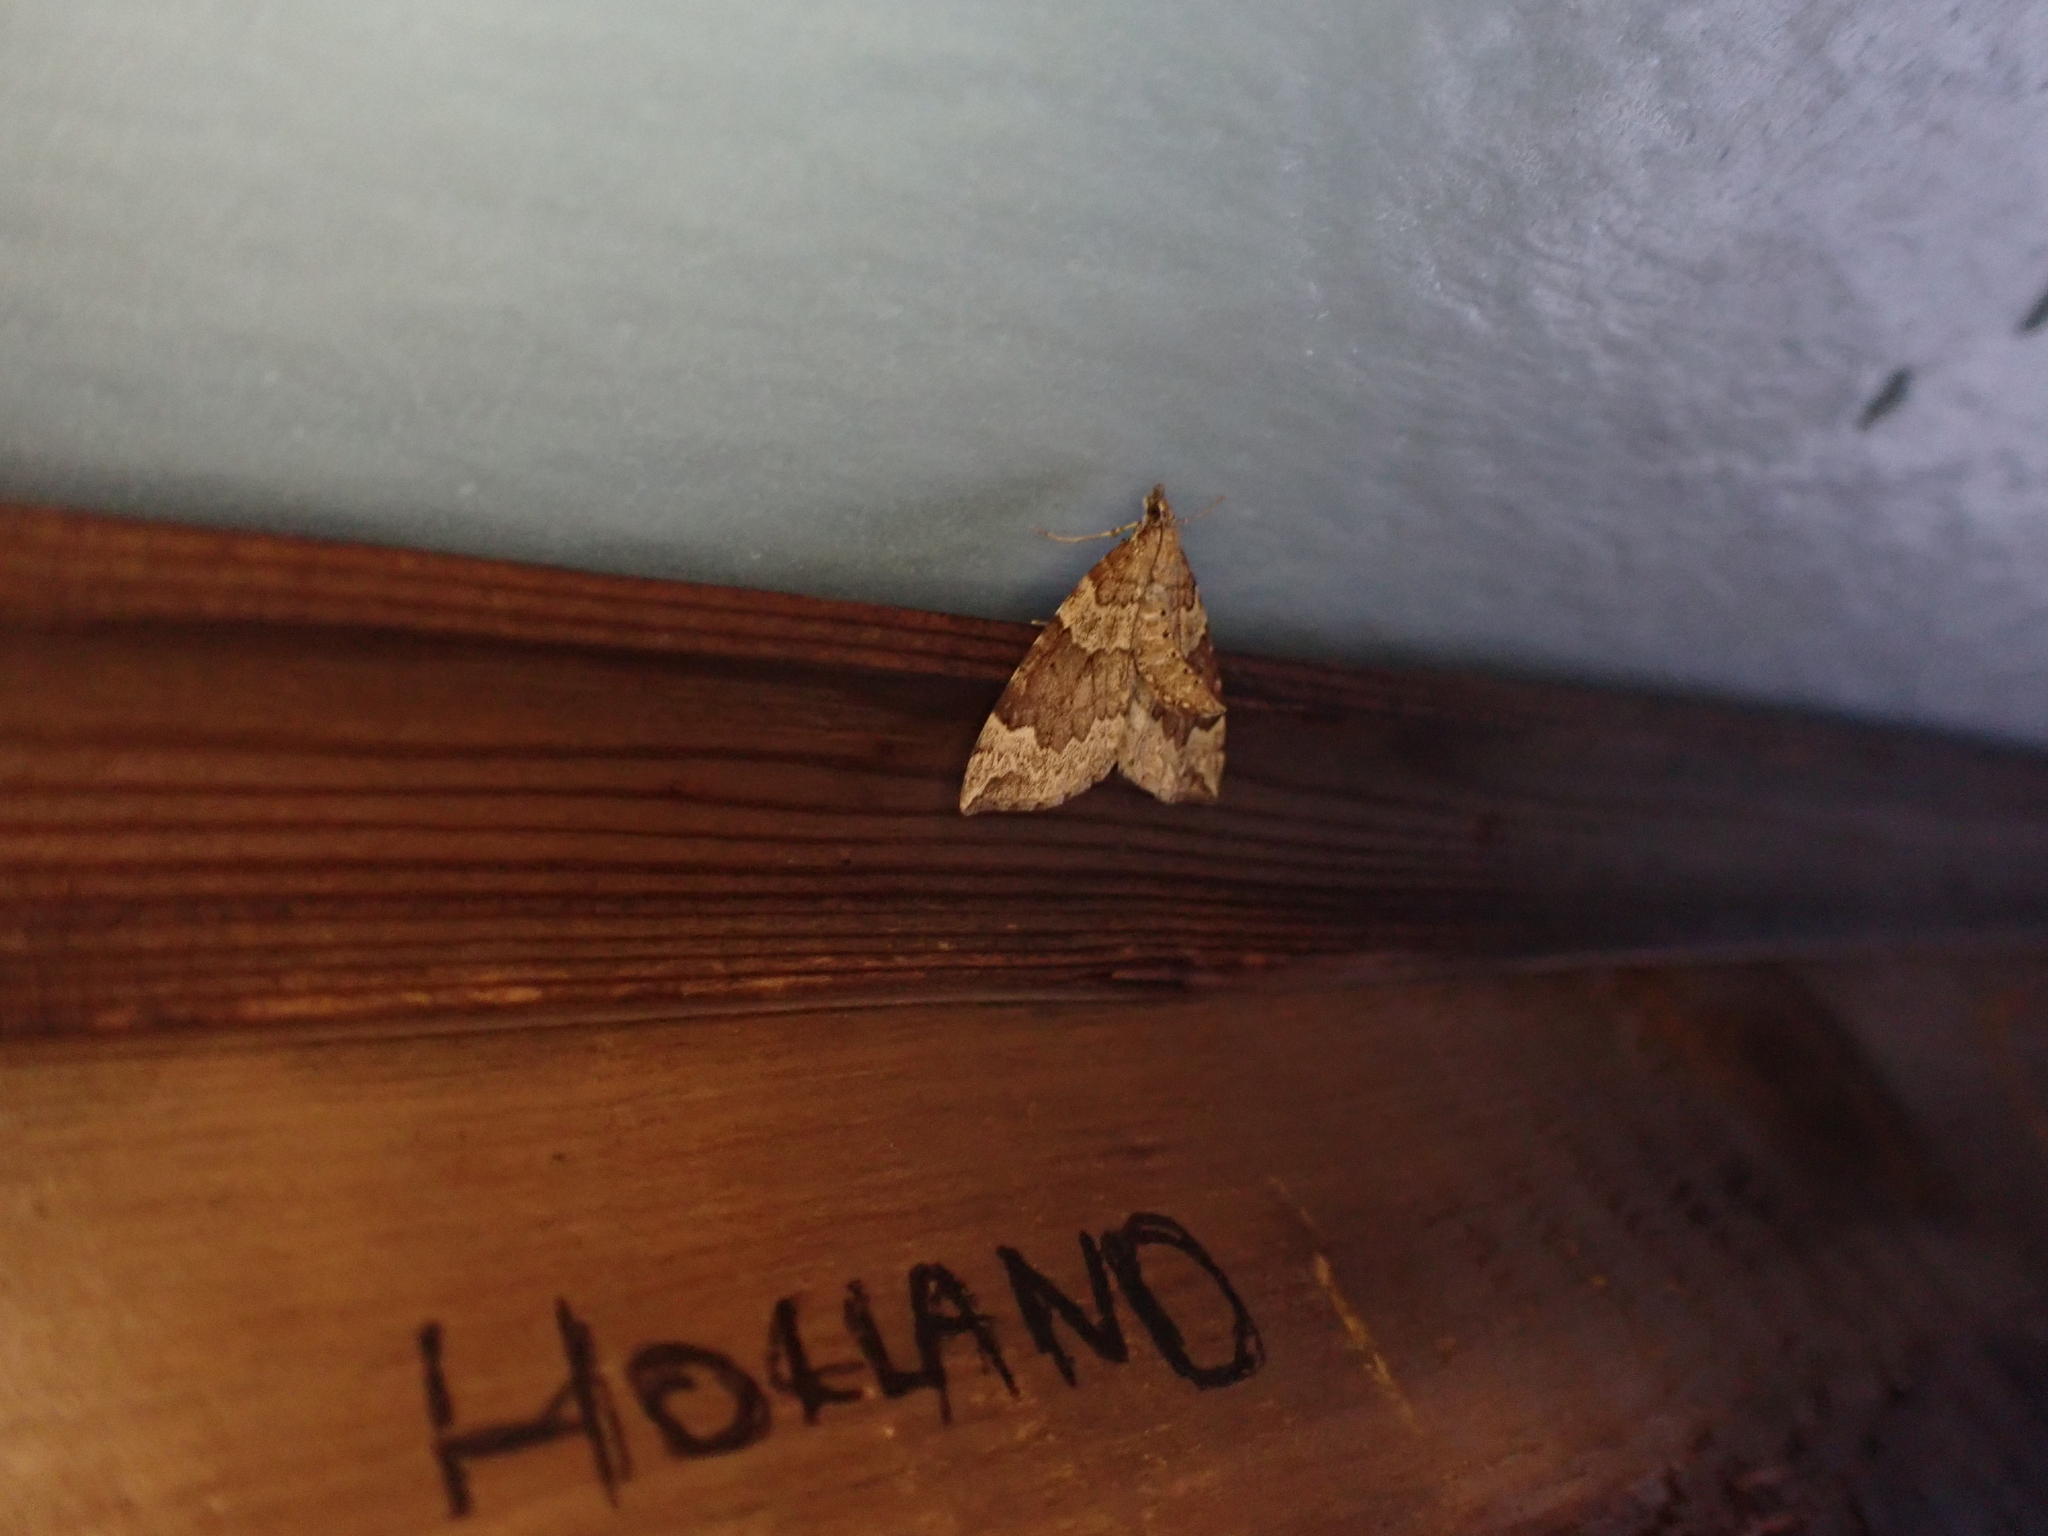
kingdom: Animalia
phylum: Arthropoda
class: Insecta
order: Lepidoptera
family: Geometridae
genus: Eulithis
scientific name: Eulithis destinata
